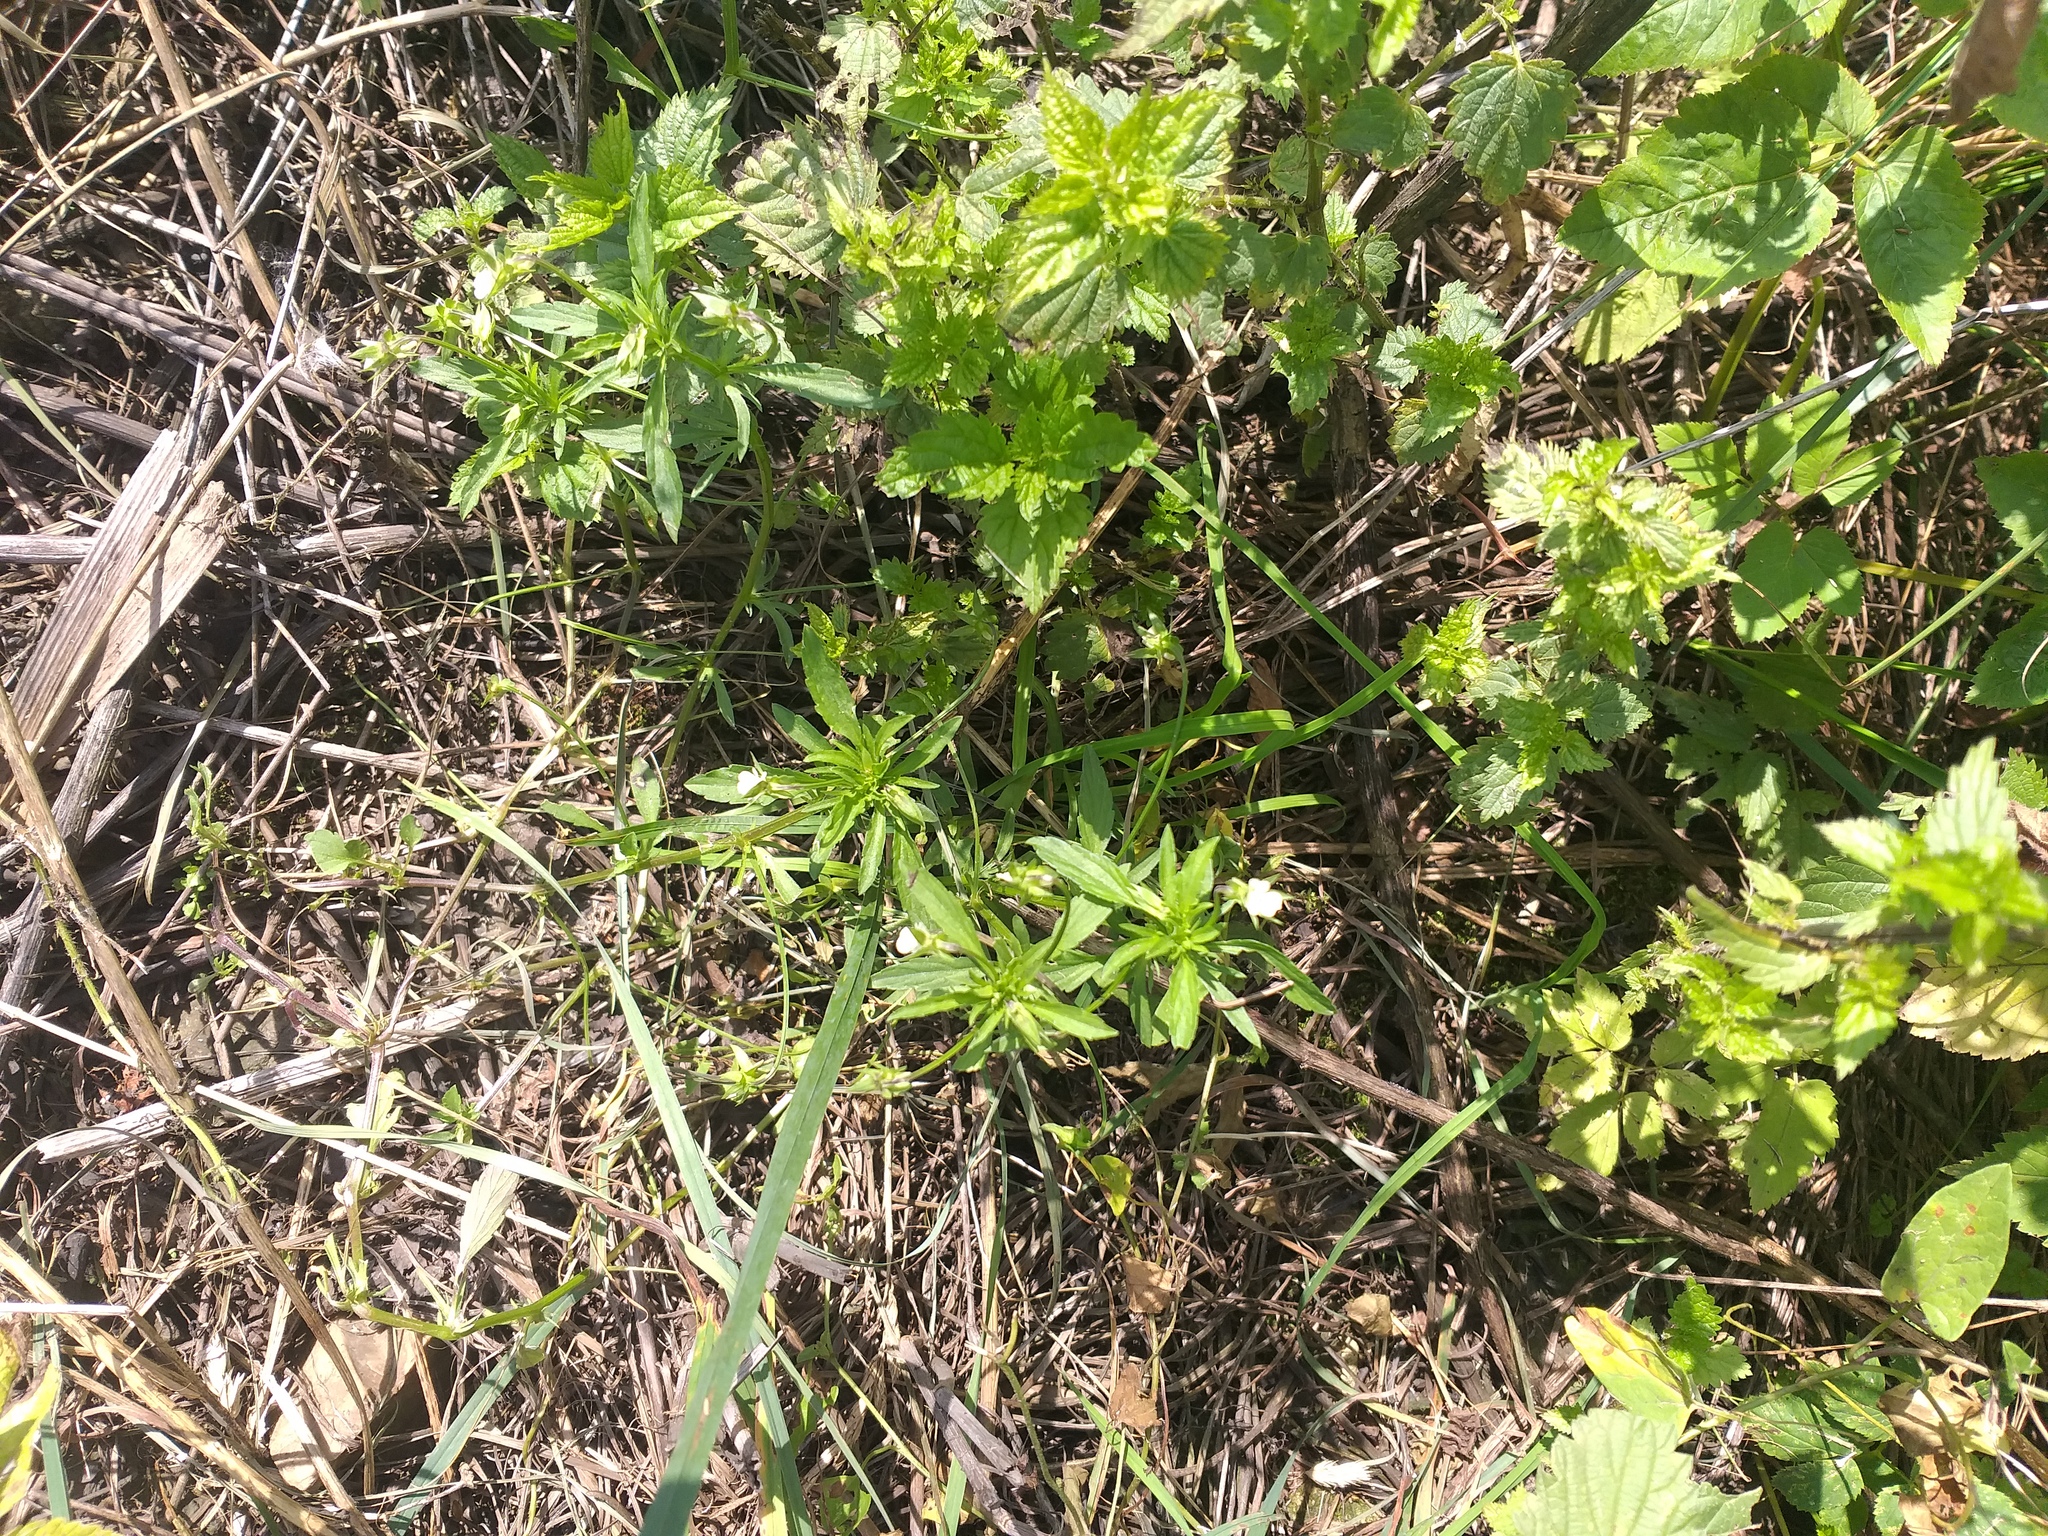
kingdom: Plantae
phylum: Tracheophyta
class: Magnoliopsida
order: Malpighiales
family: Violaceae
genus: Viola
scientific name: Viola arvensis
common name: Field pansy
